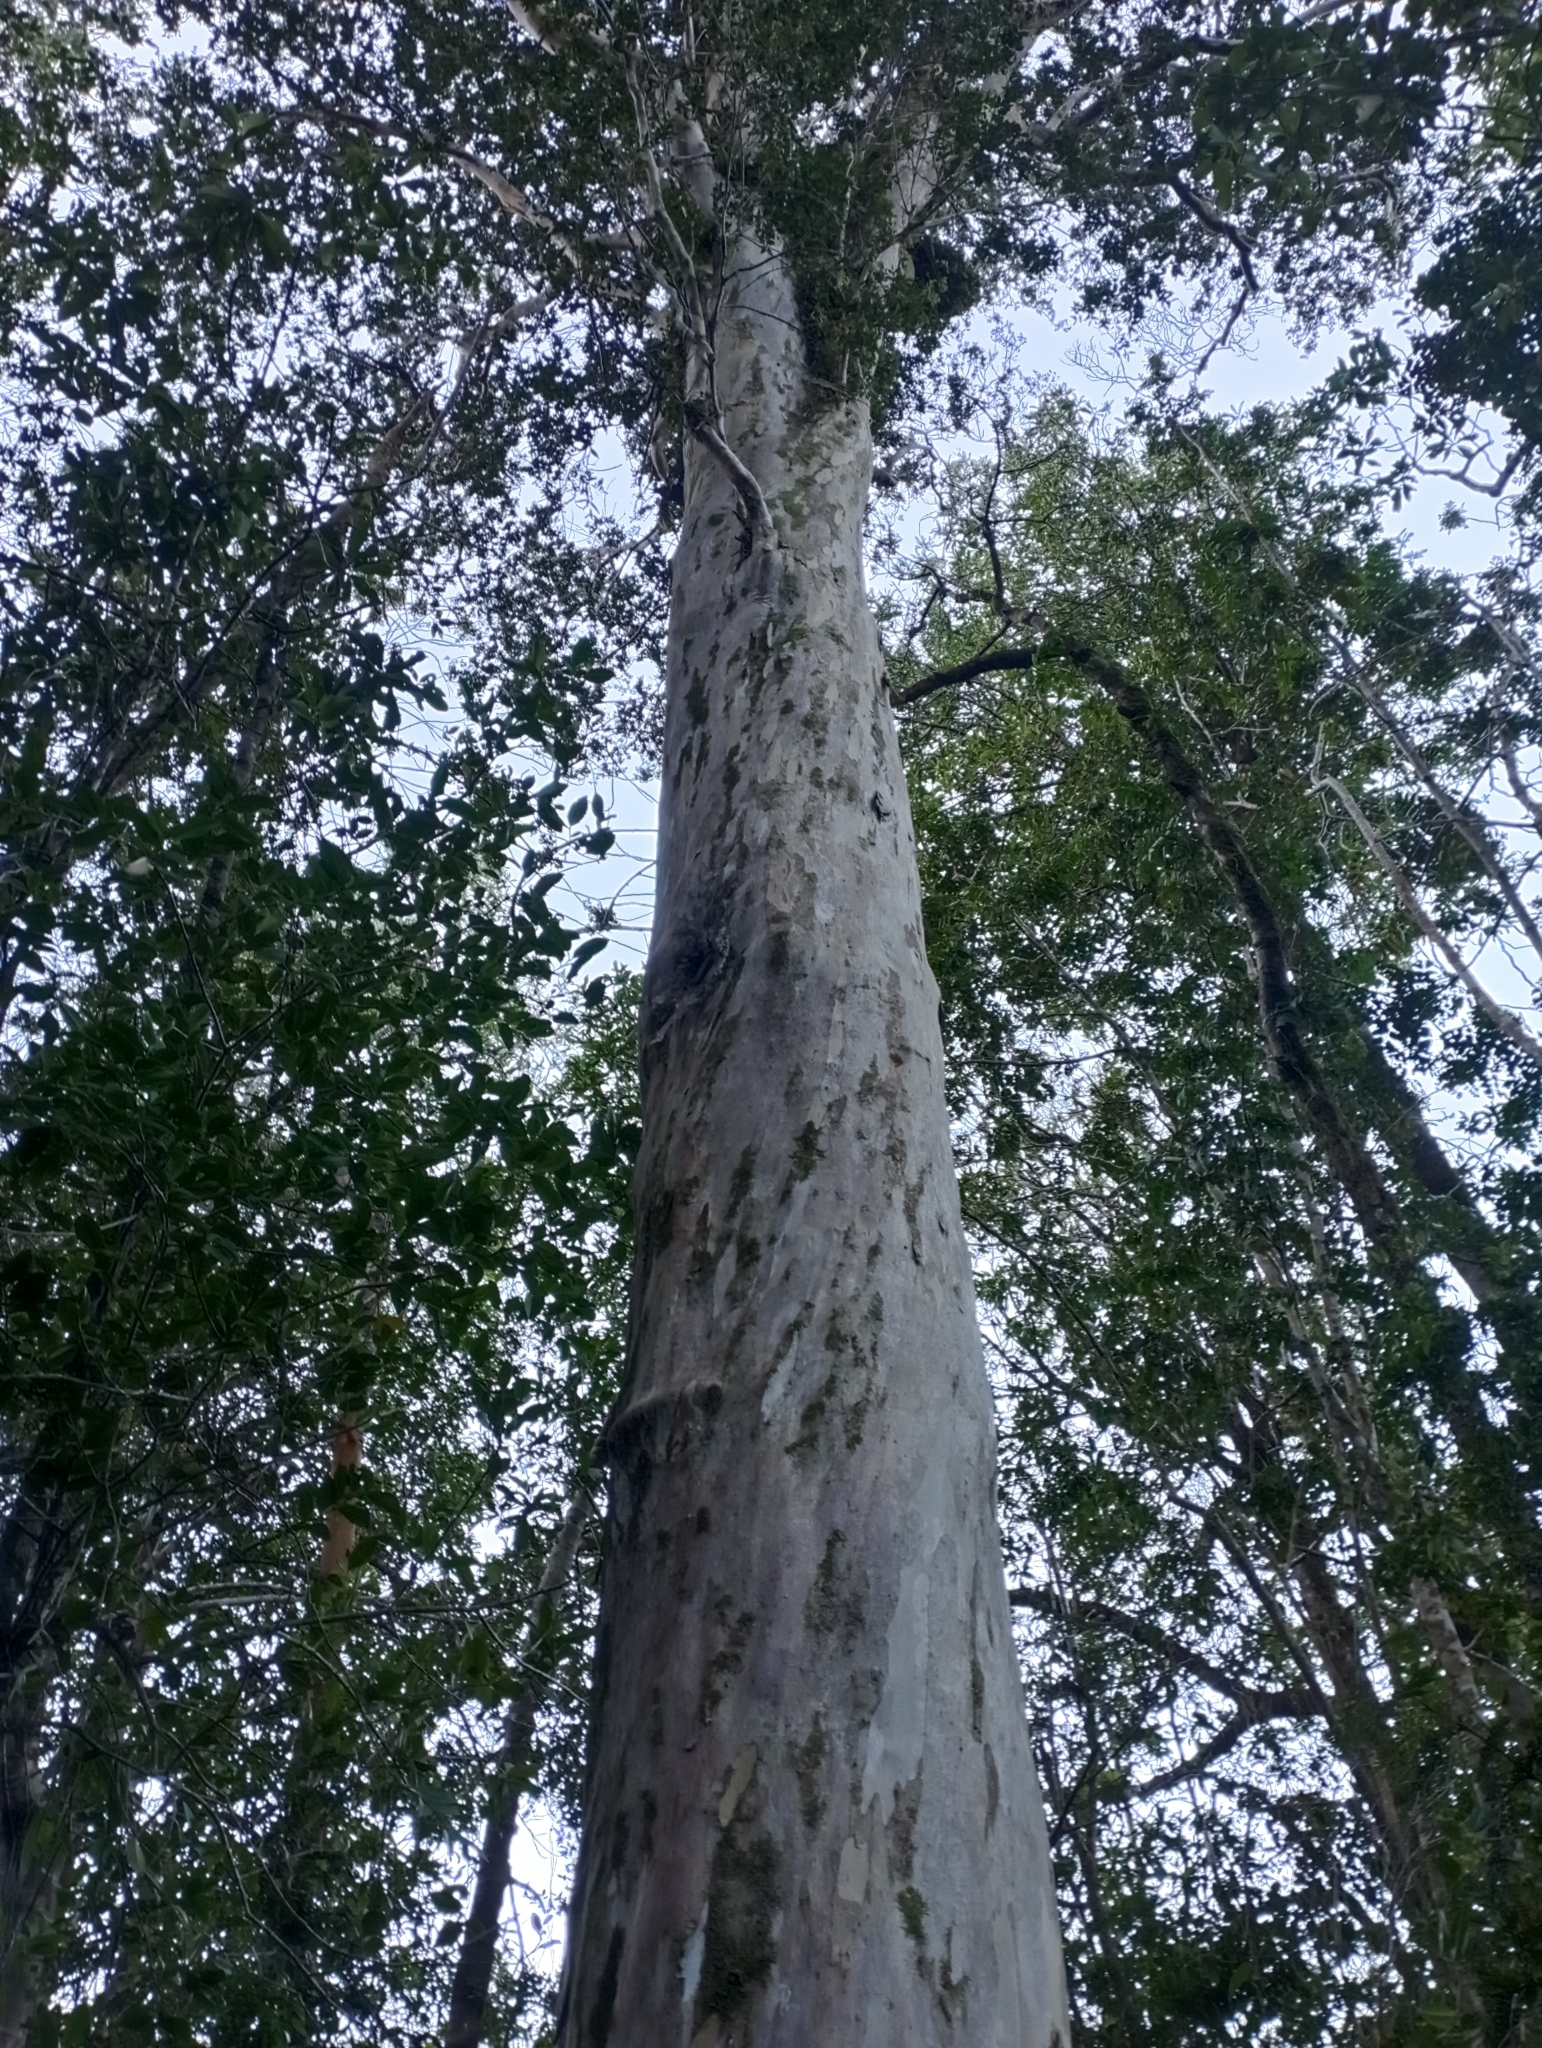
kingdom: Plantae
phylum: Tracheophyta
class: Magnoliopsida
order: Myrtales
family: Myrtaceae
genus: Amomyrtus
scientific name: Amomyrtus meli
